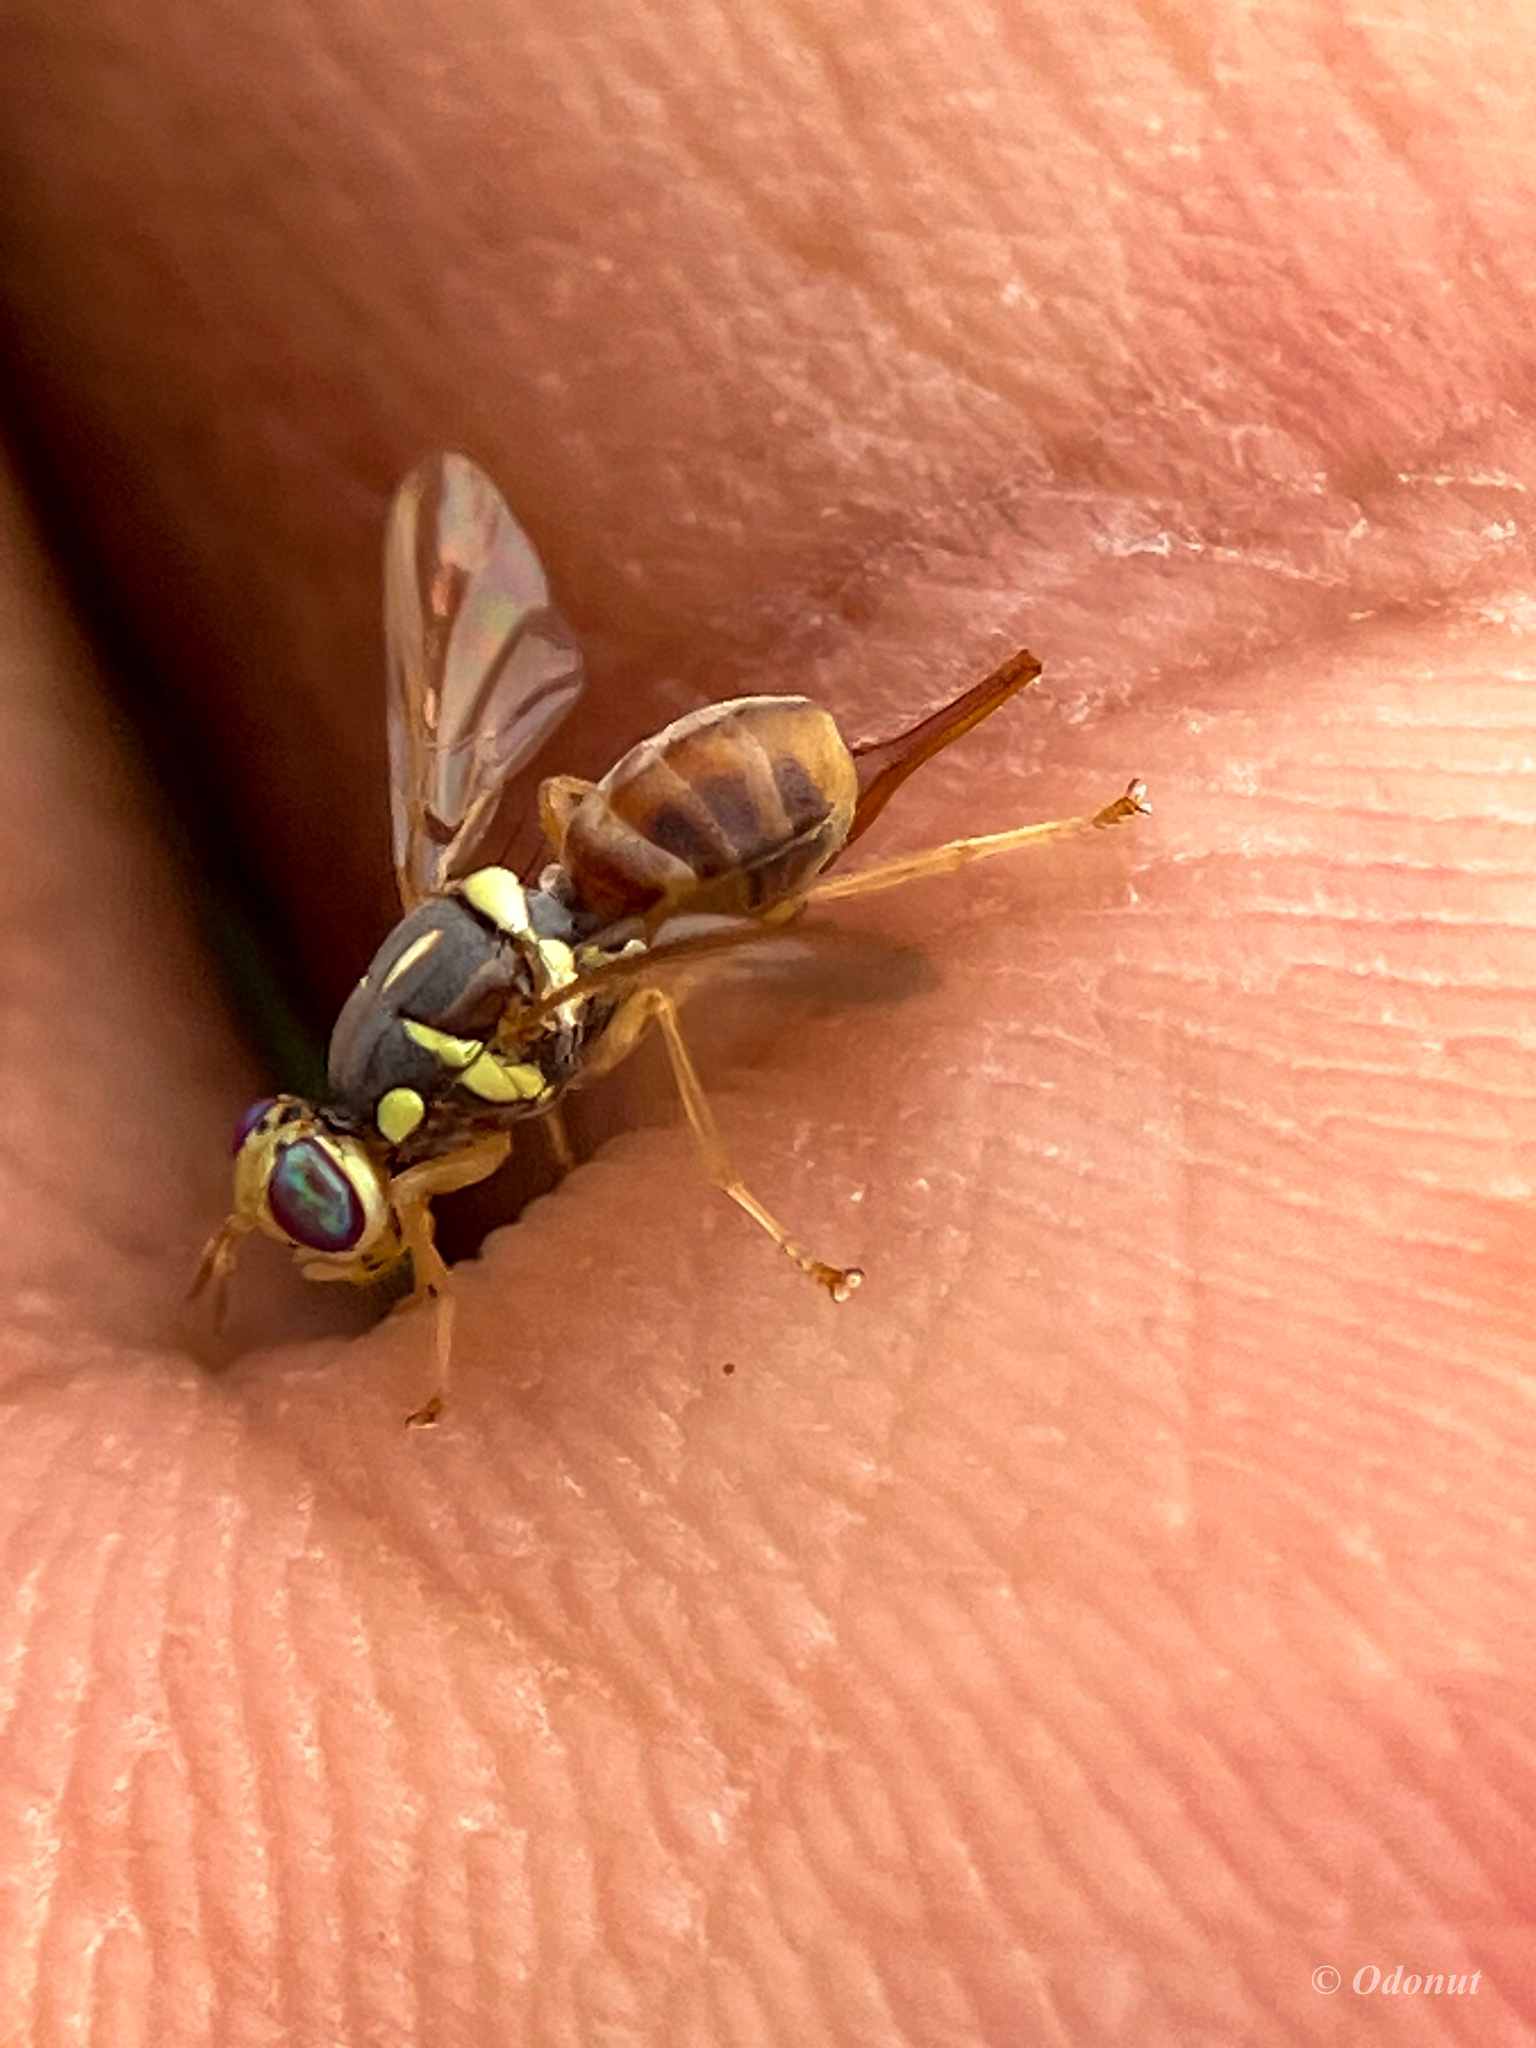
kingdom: Animalia
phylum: Arthropoda
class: Insecta
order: Diptera
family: Tephritidae
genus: Dacus
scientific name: Dacus persicus
